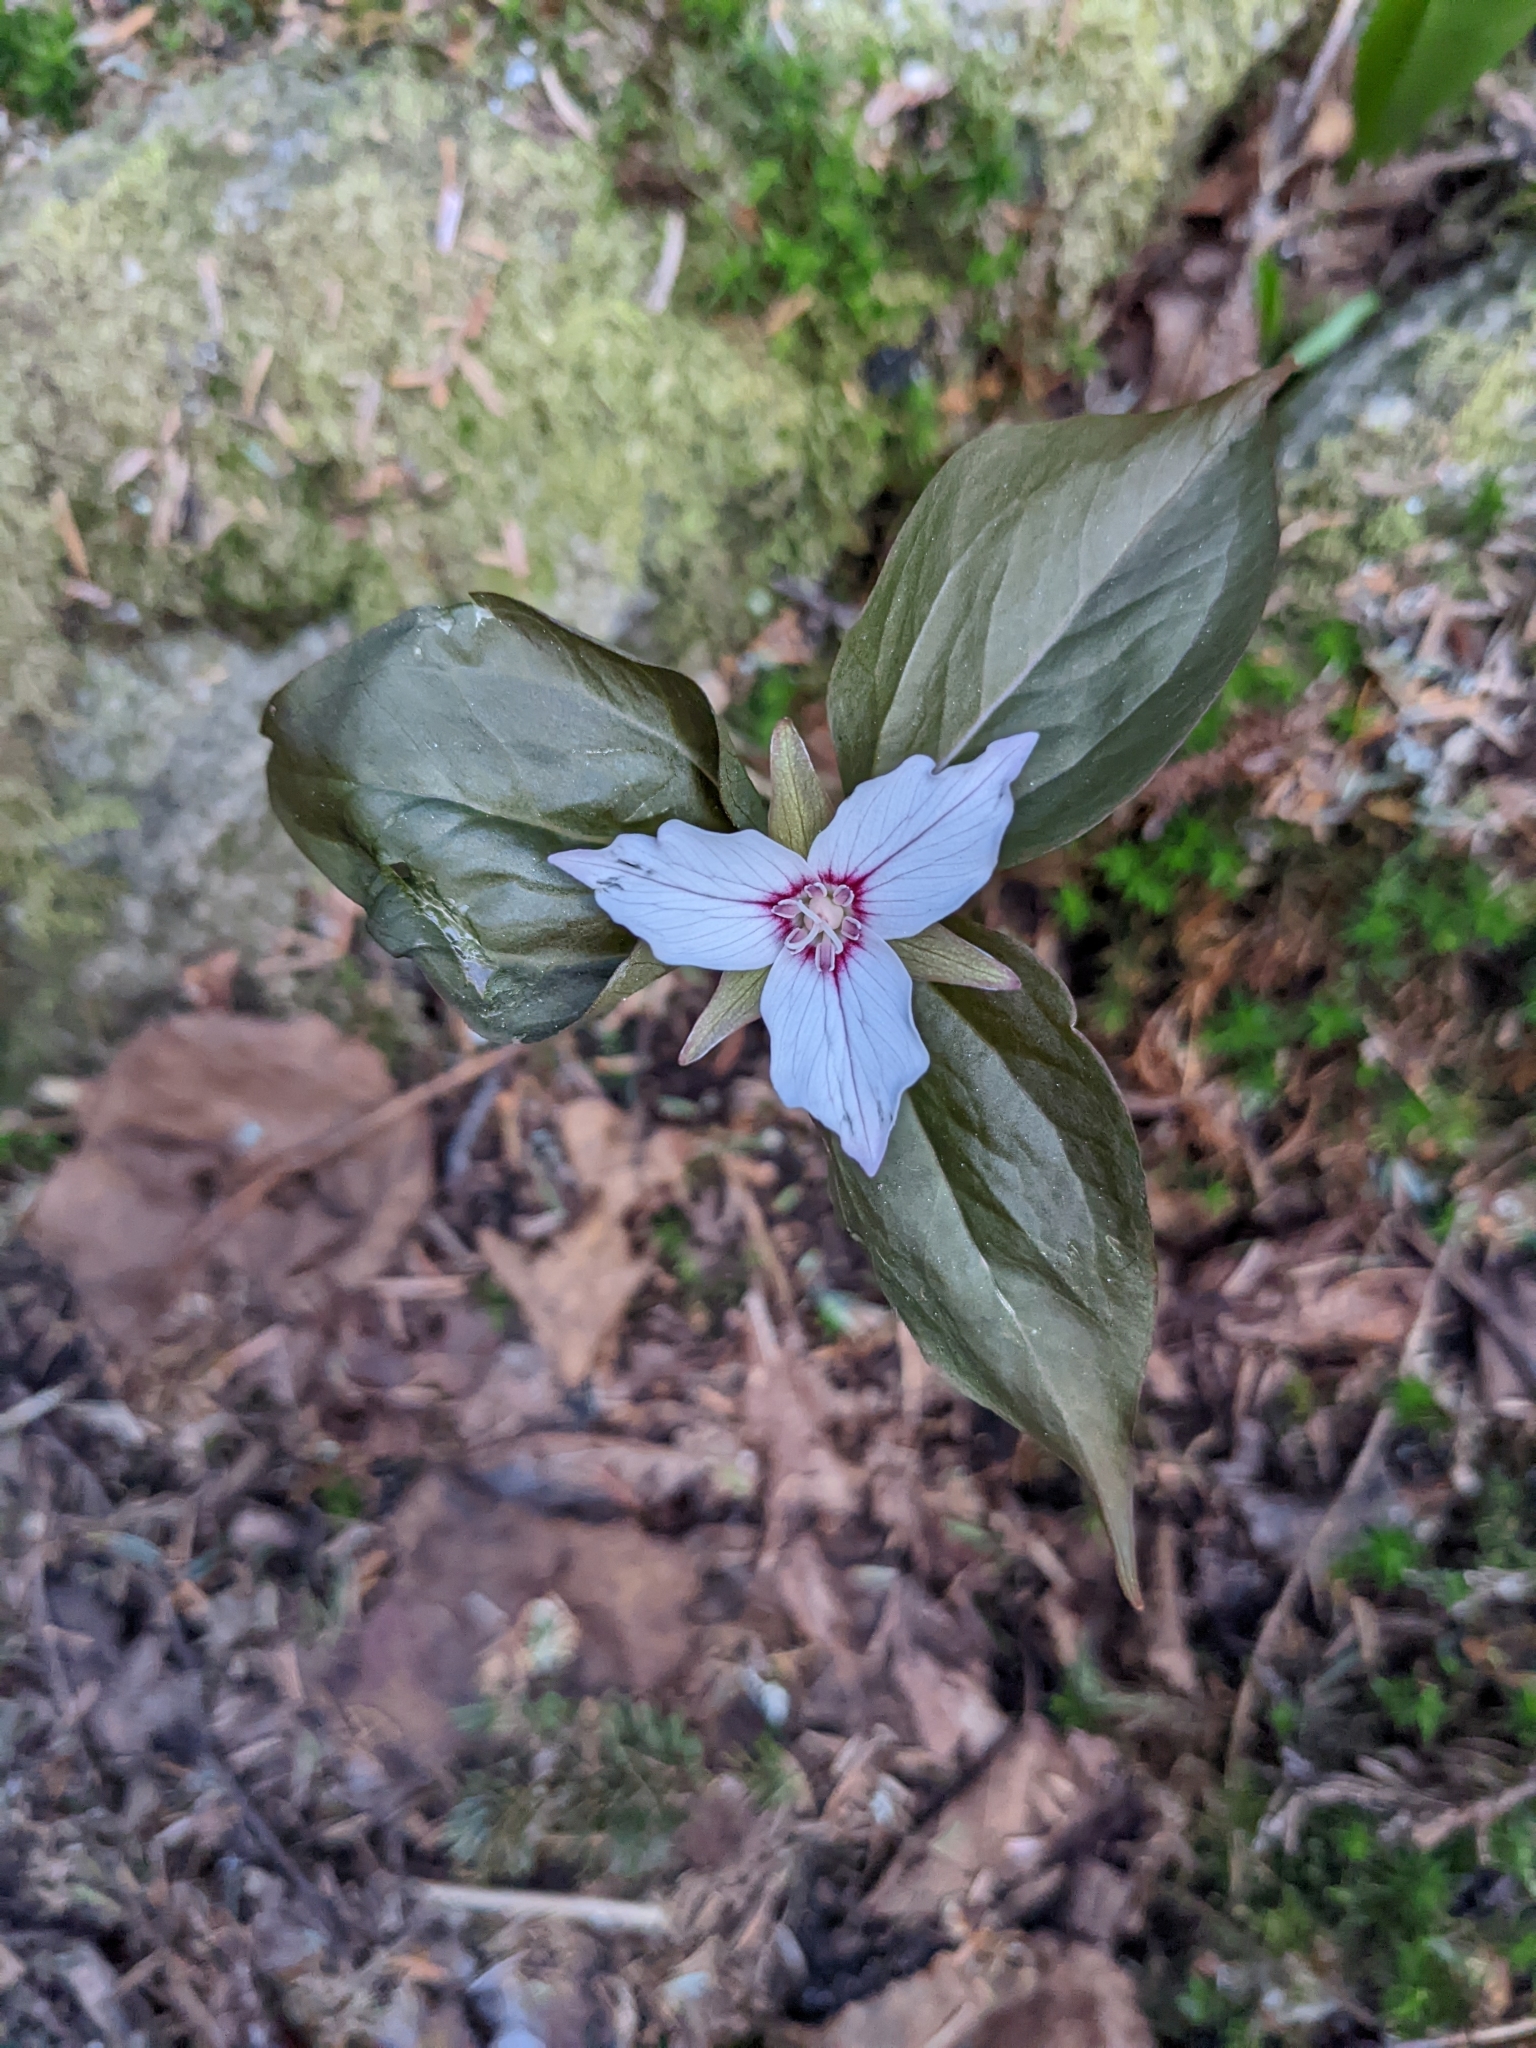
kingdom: Plantae
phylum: Tracheophyta
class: Liliopsida
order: Liliales
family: Melanthiaceae
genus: Trillium
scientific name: Trillium undulatum
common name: Paint trillium
